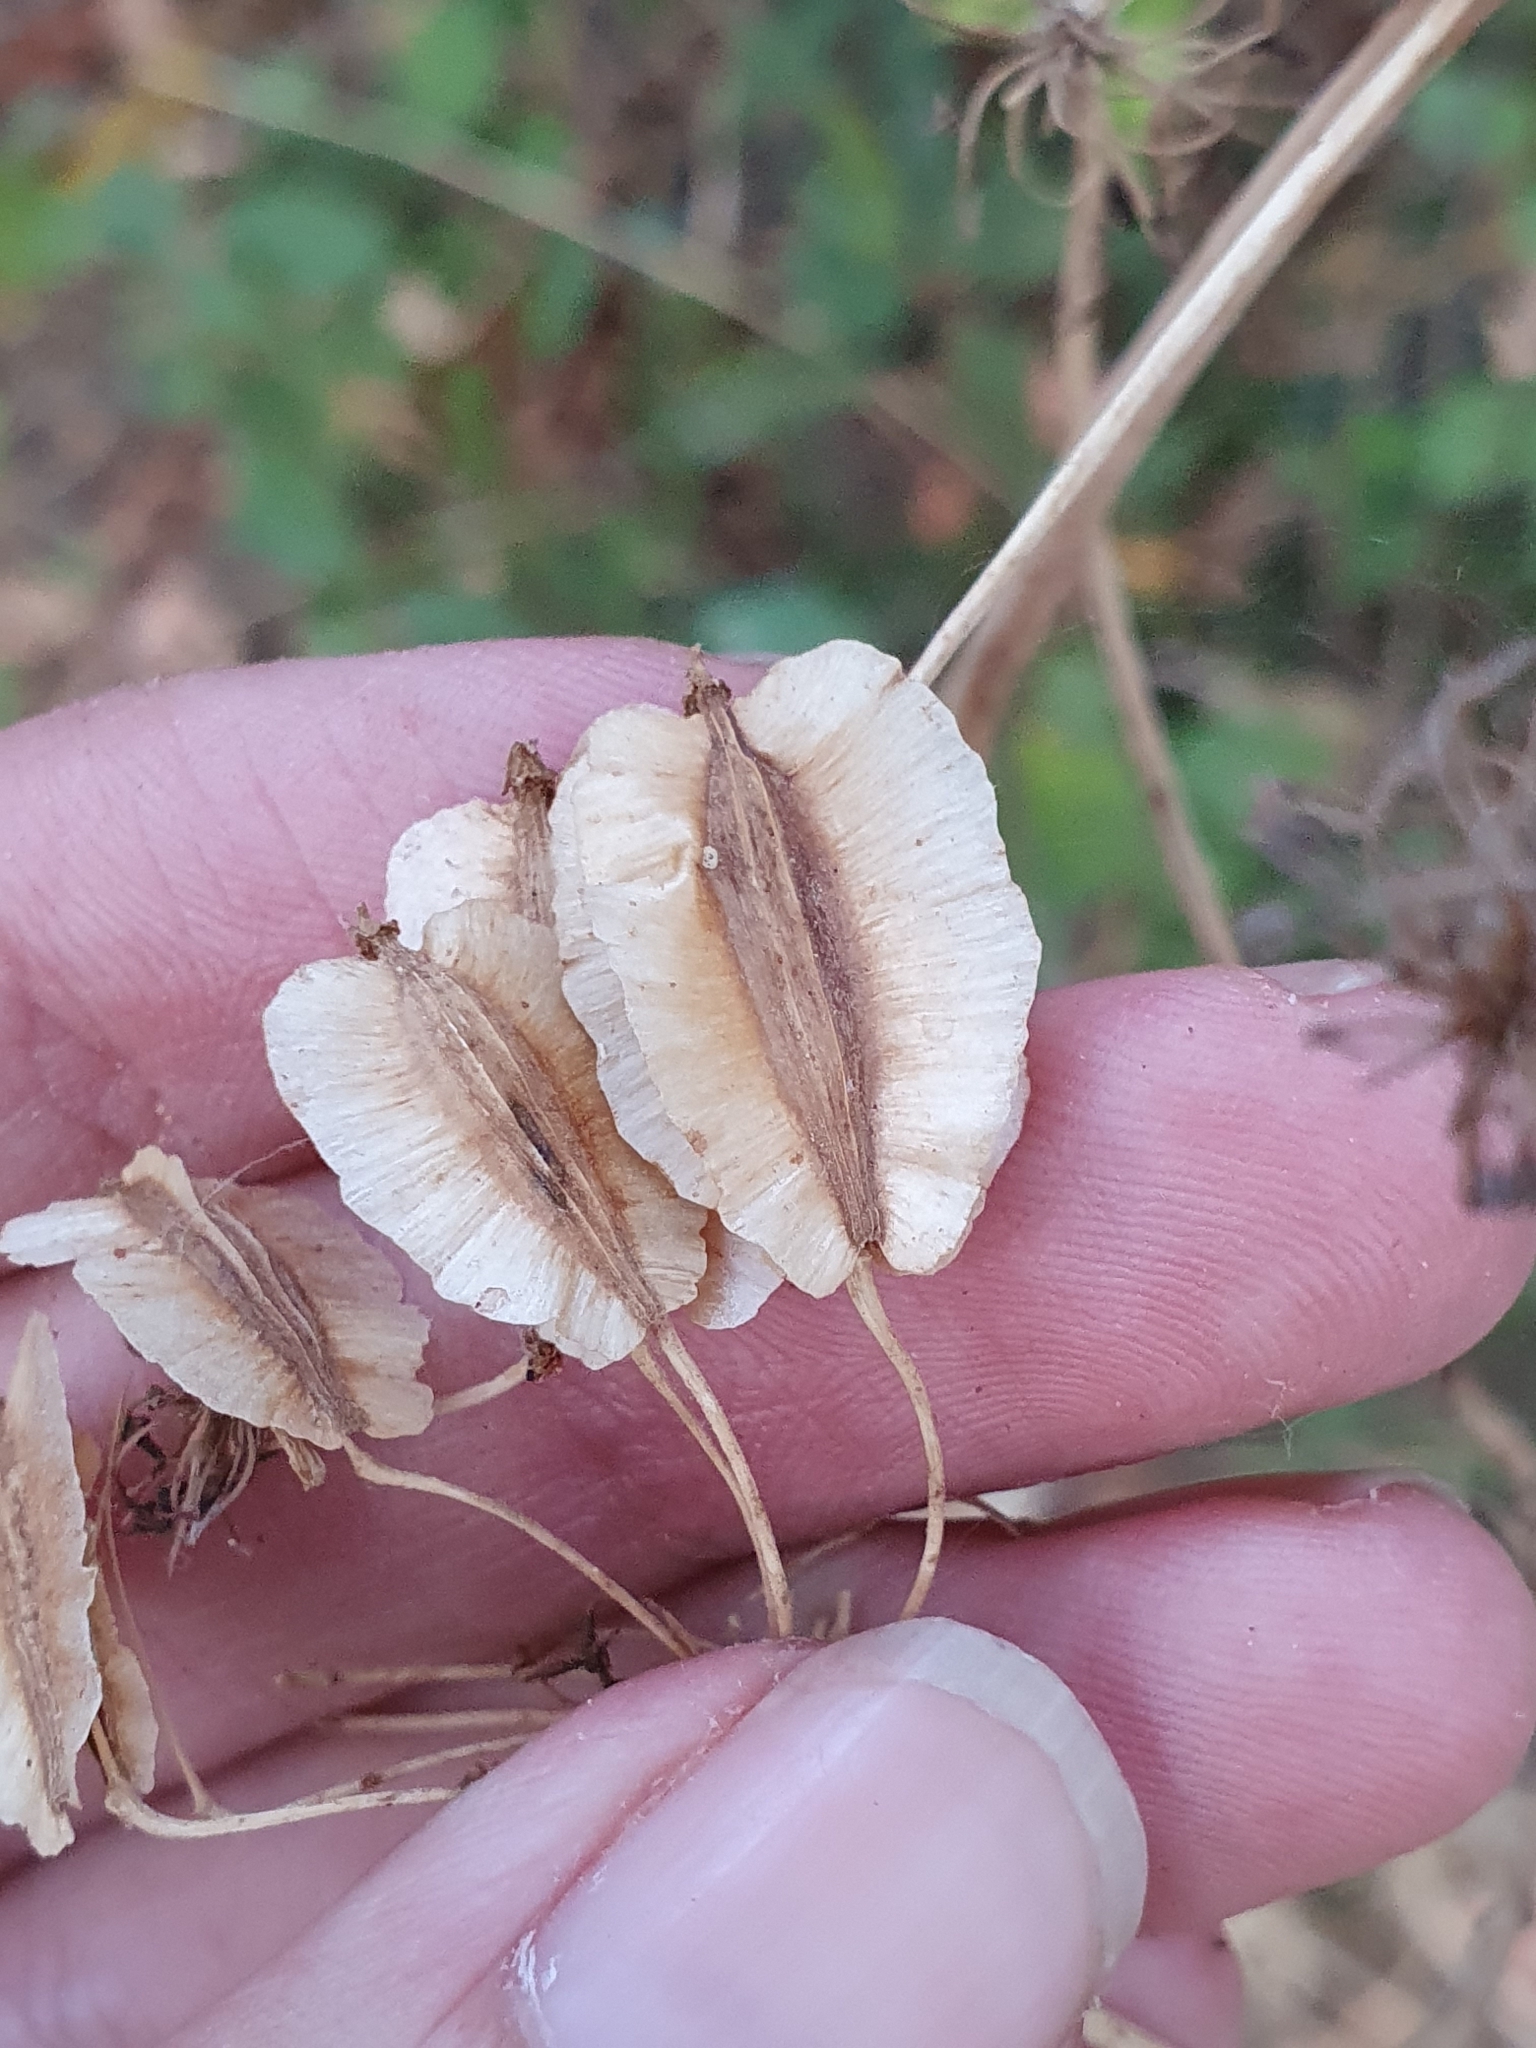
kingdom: Plantae
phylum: Tracheophyta
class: Magnoliopsida
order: Apiales
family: Apiaceae
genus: Thapsia
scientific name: Thapsia garganica
